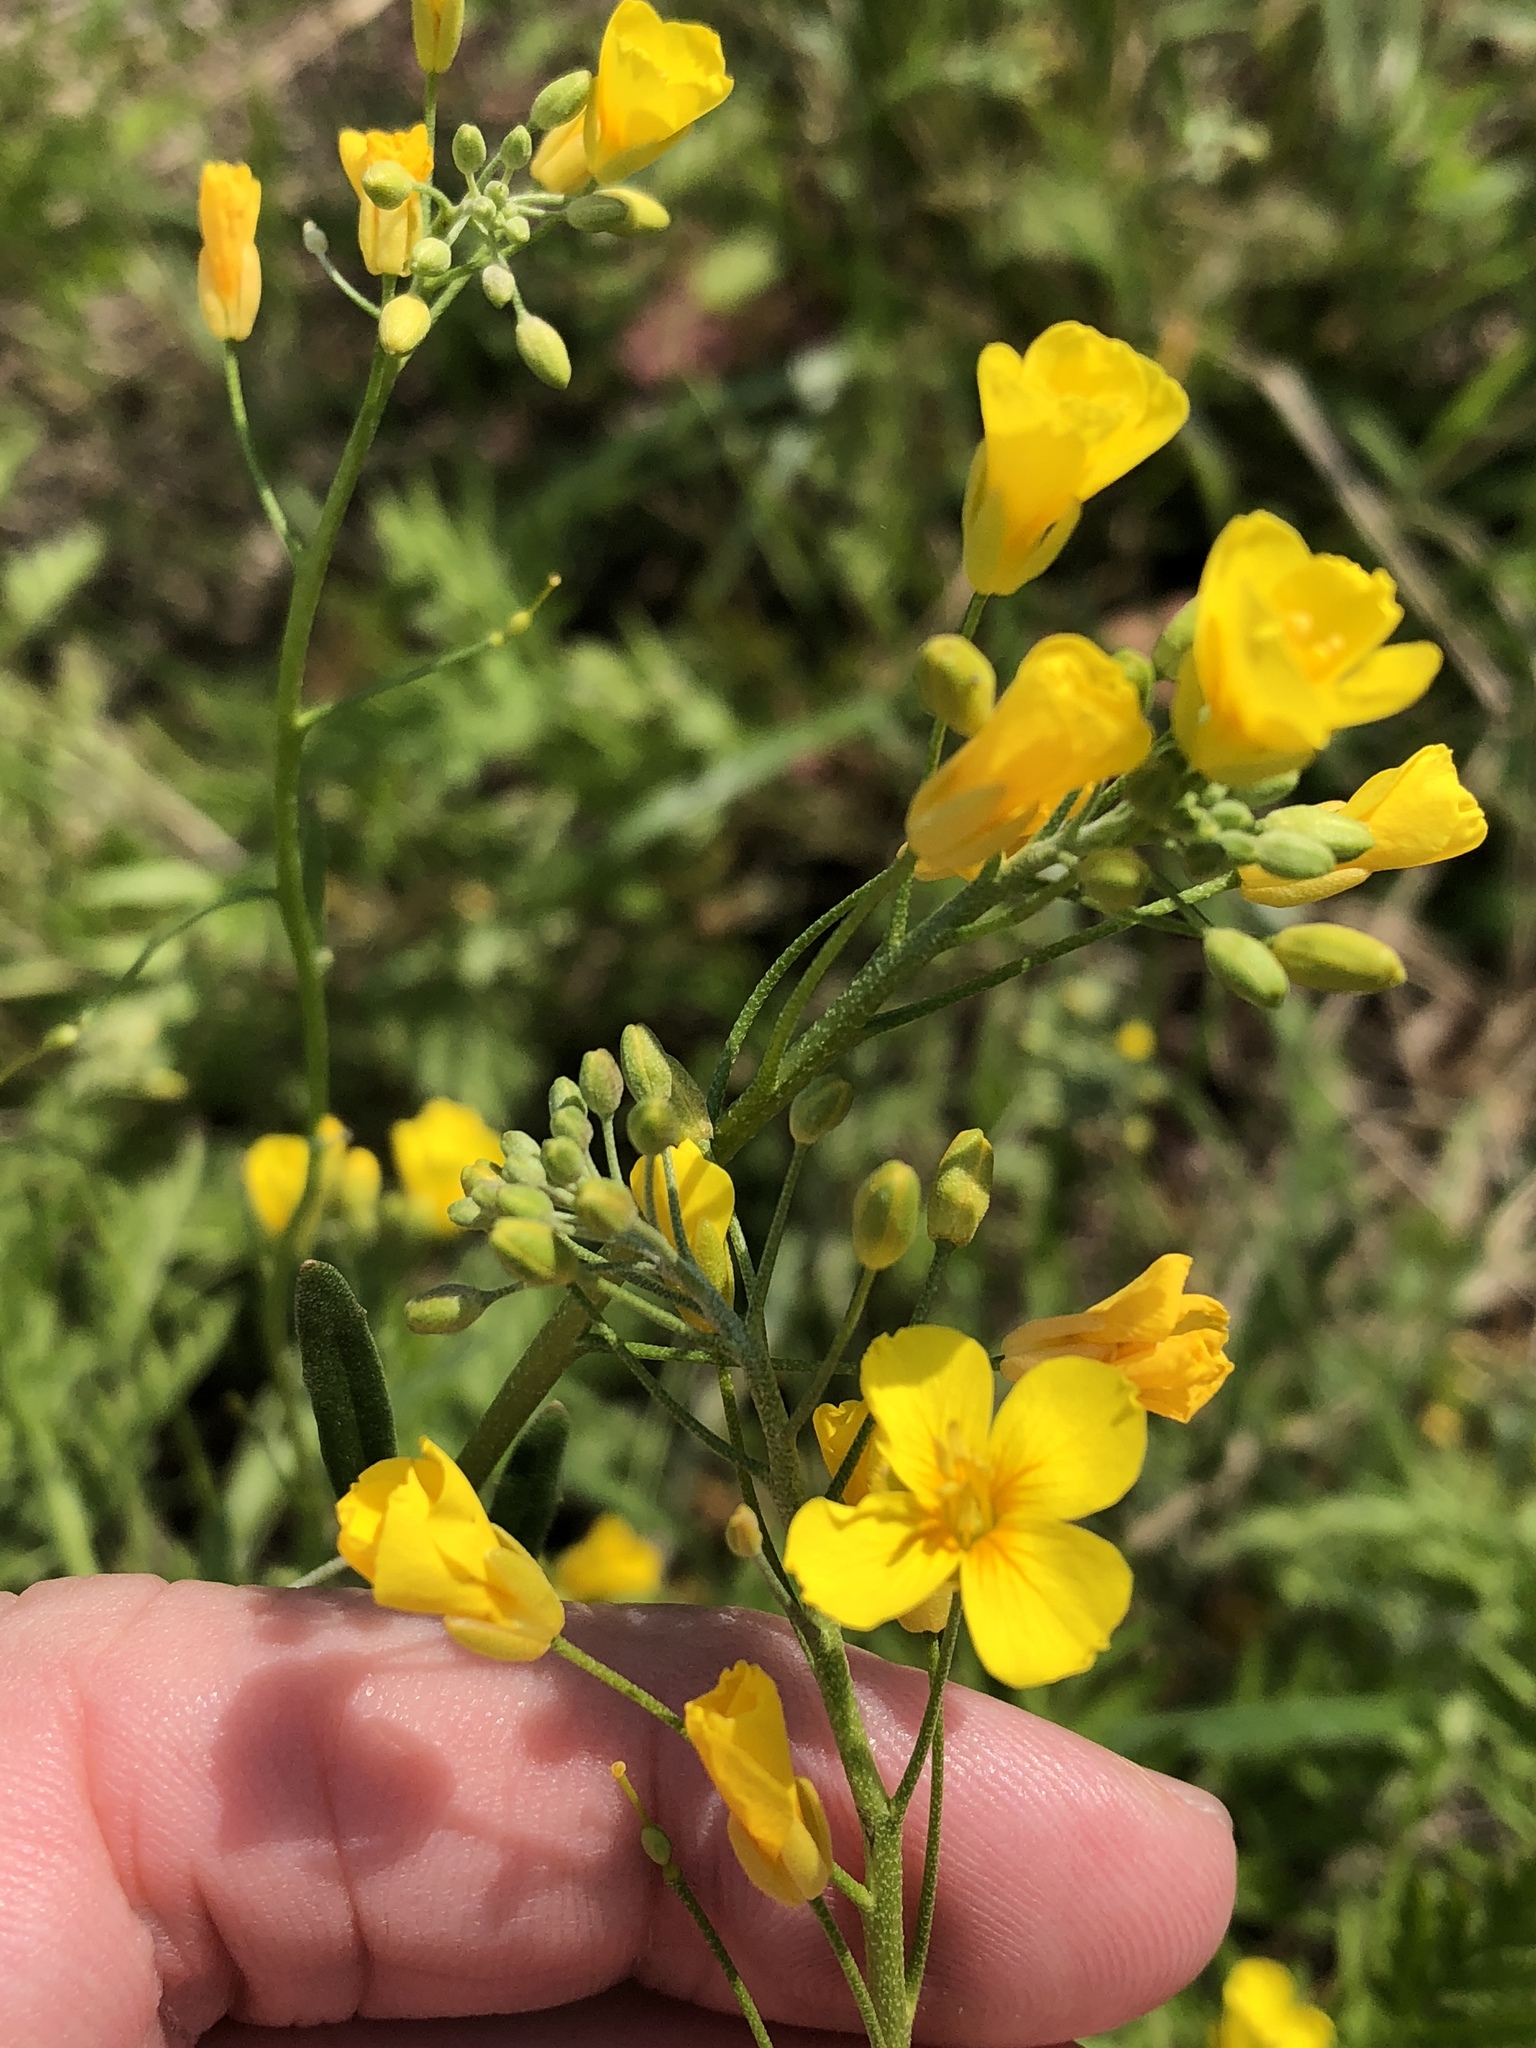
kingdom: Plantae
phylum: Tracheophyta
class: Magnoliopsida
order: Brassicales
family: Brassicaceae
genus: Physaria
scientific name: Physaria gracilis
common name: Spreading bladderpod
